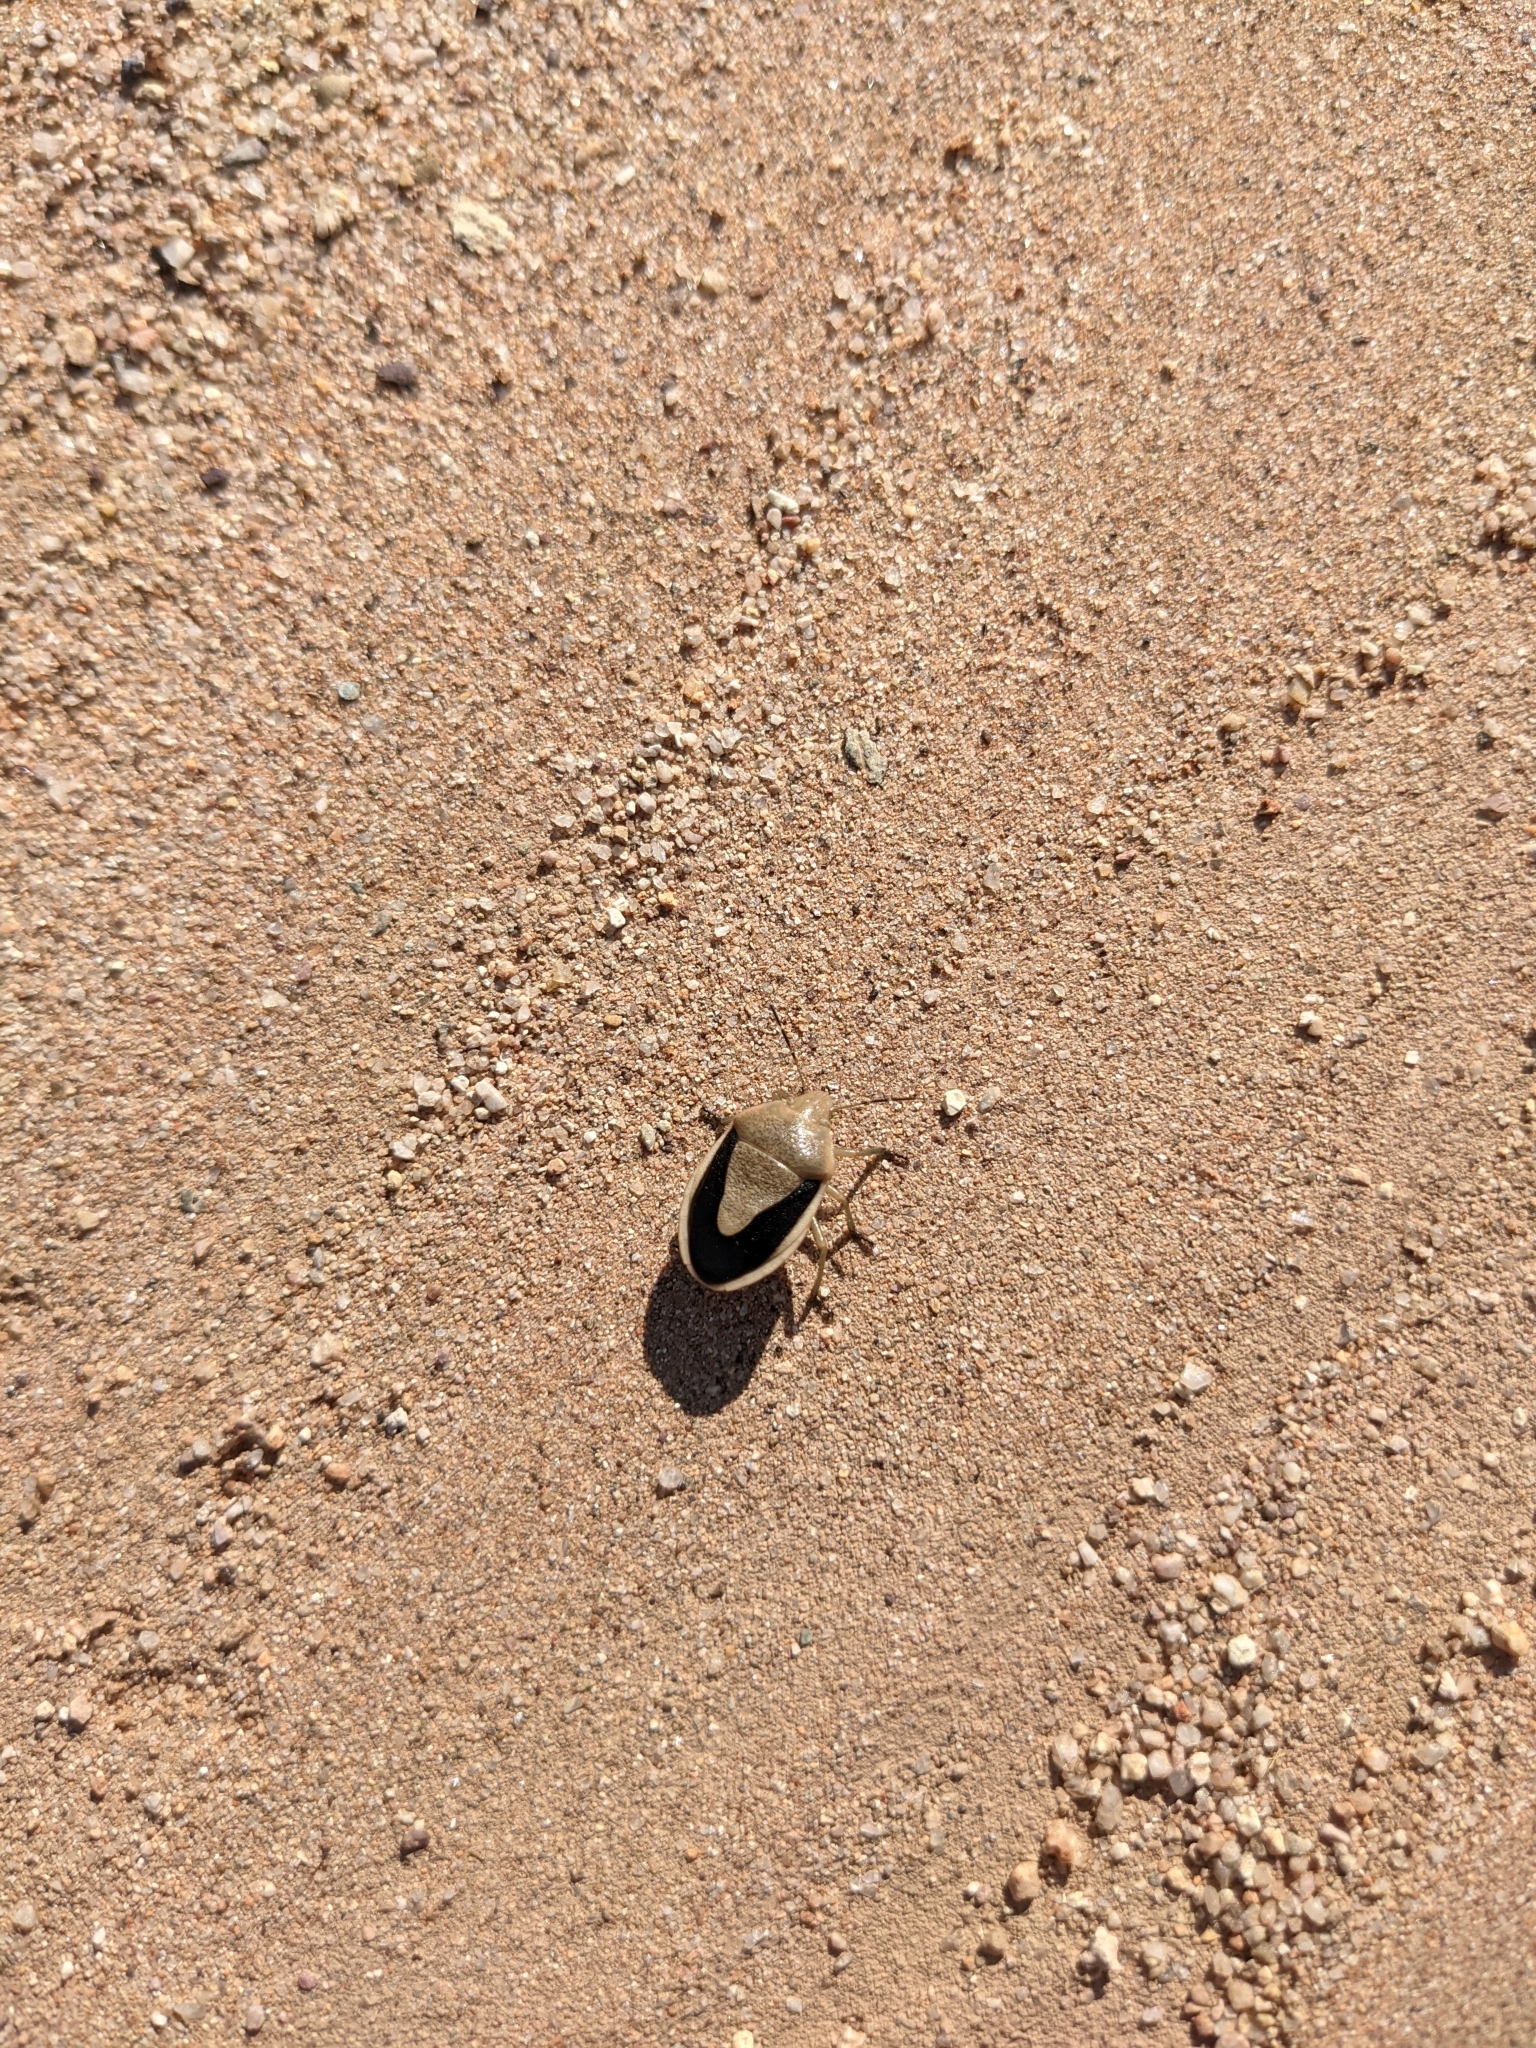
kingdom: Animalia
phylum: Arthropoda
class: Insecta
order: Hemiptera
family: Pentatomidae
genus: Chlorochroa
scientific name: Chlorochroa osborni
